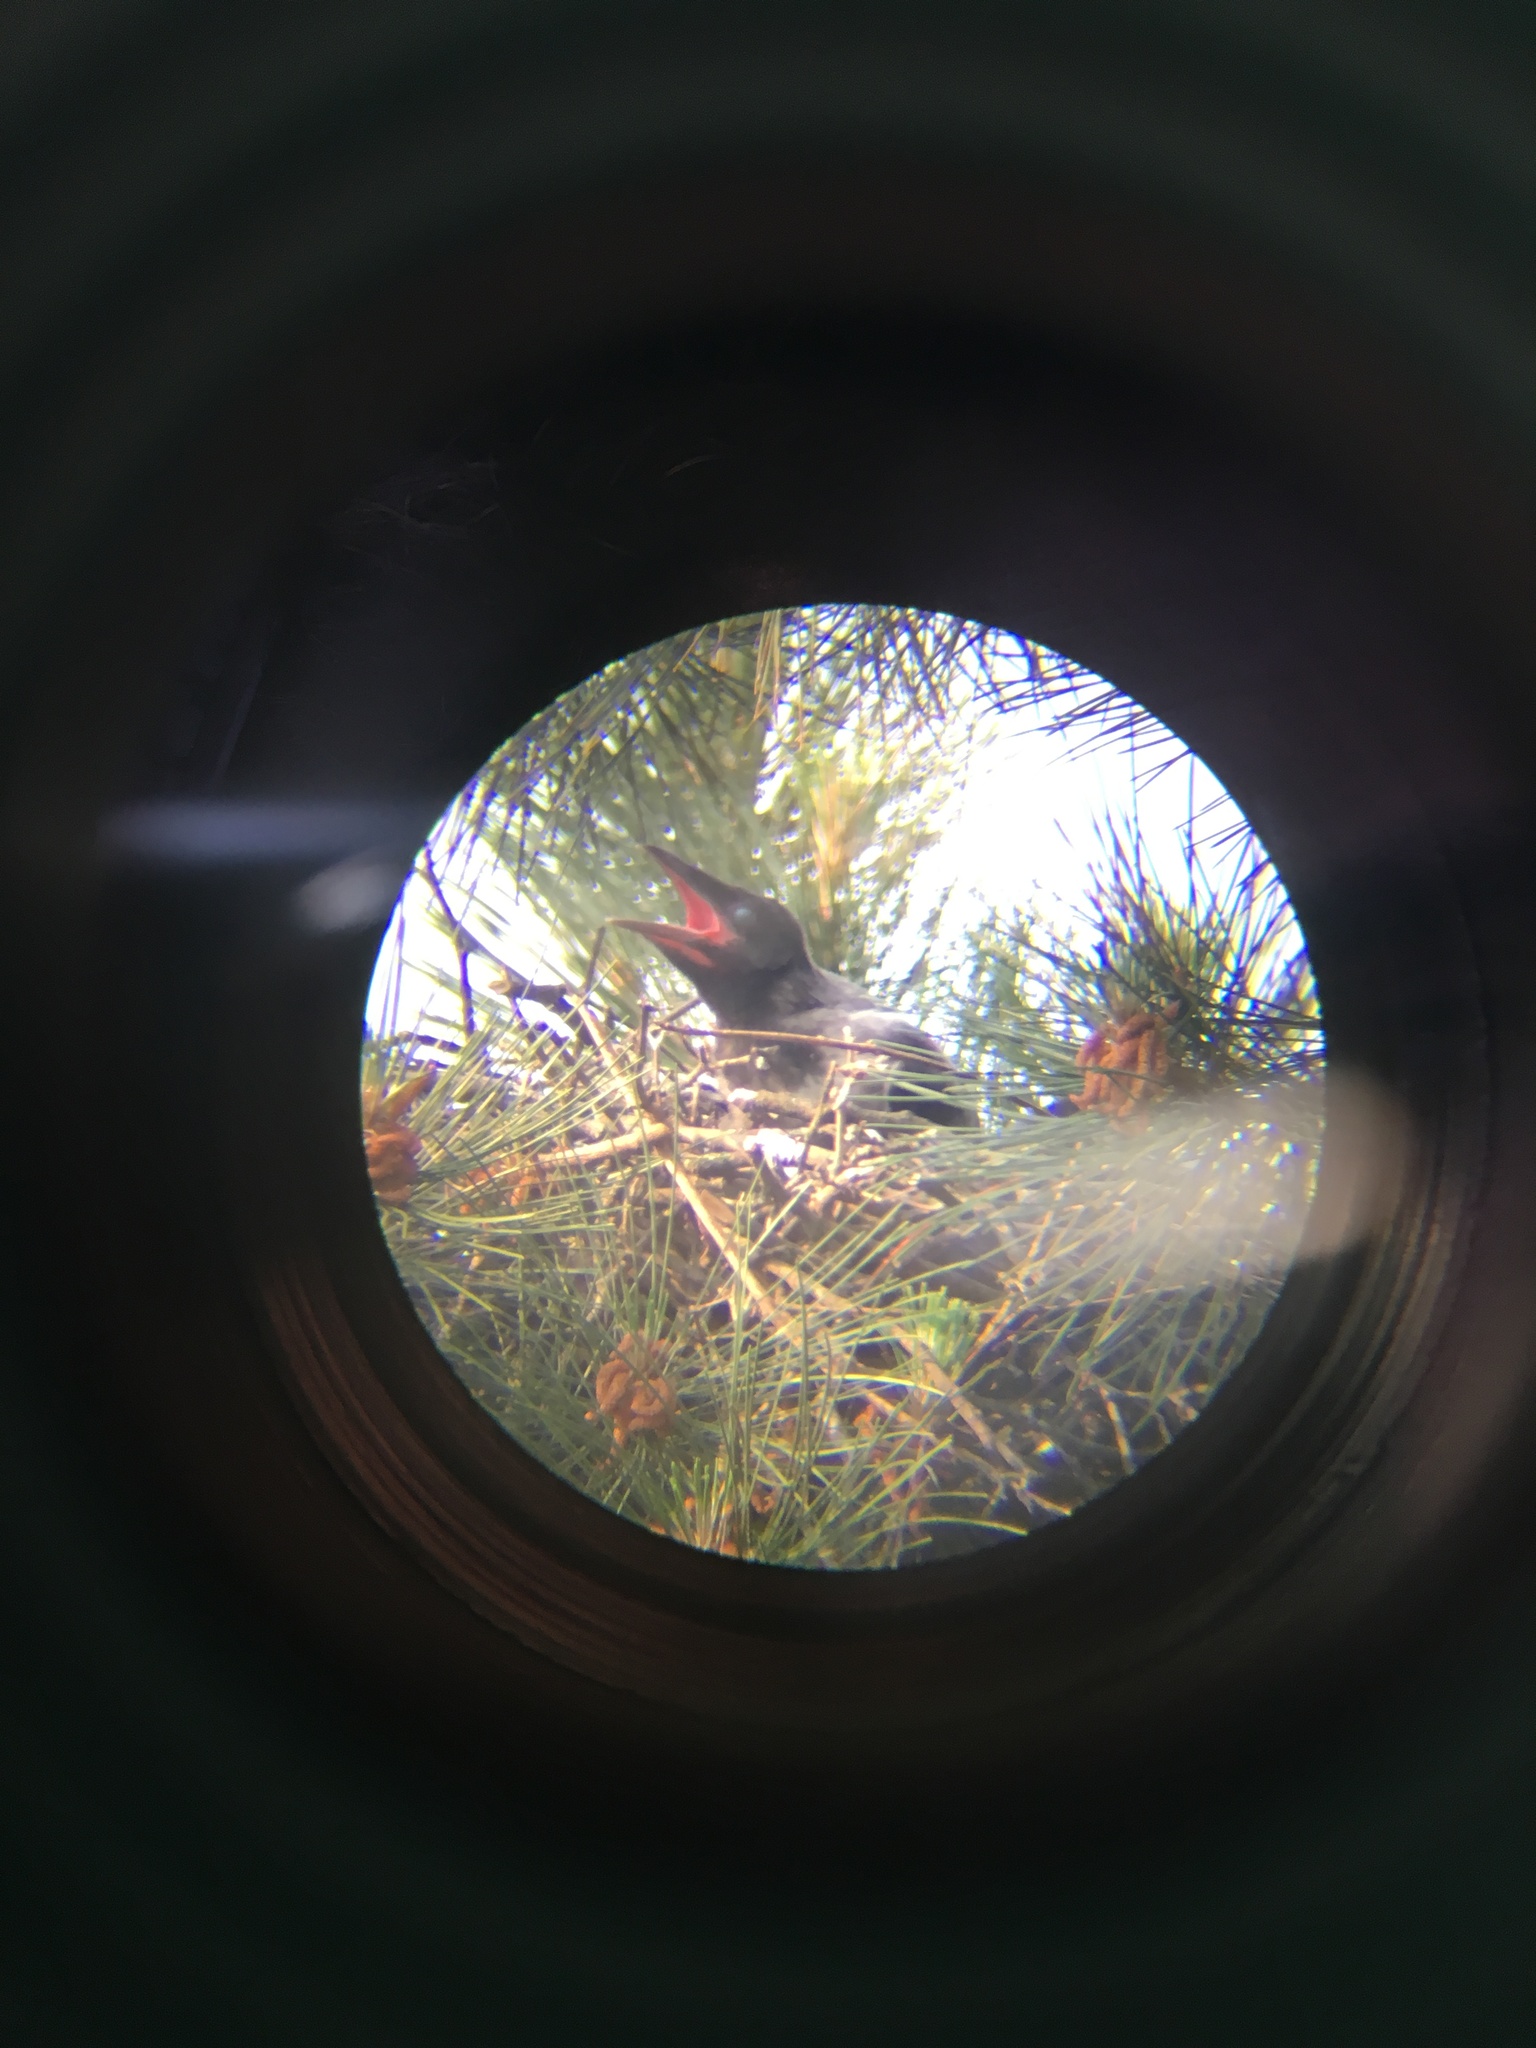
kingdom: Animalia
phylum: Chordata
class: Aves
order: Passeriformes
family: Corvidae
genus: Corvus
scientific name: Corvus cornix
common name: Hooded crow
